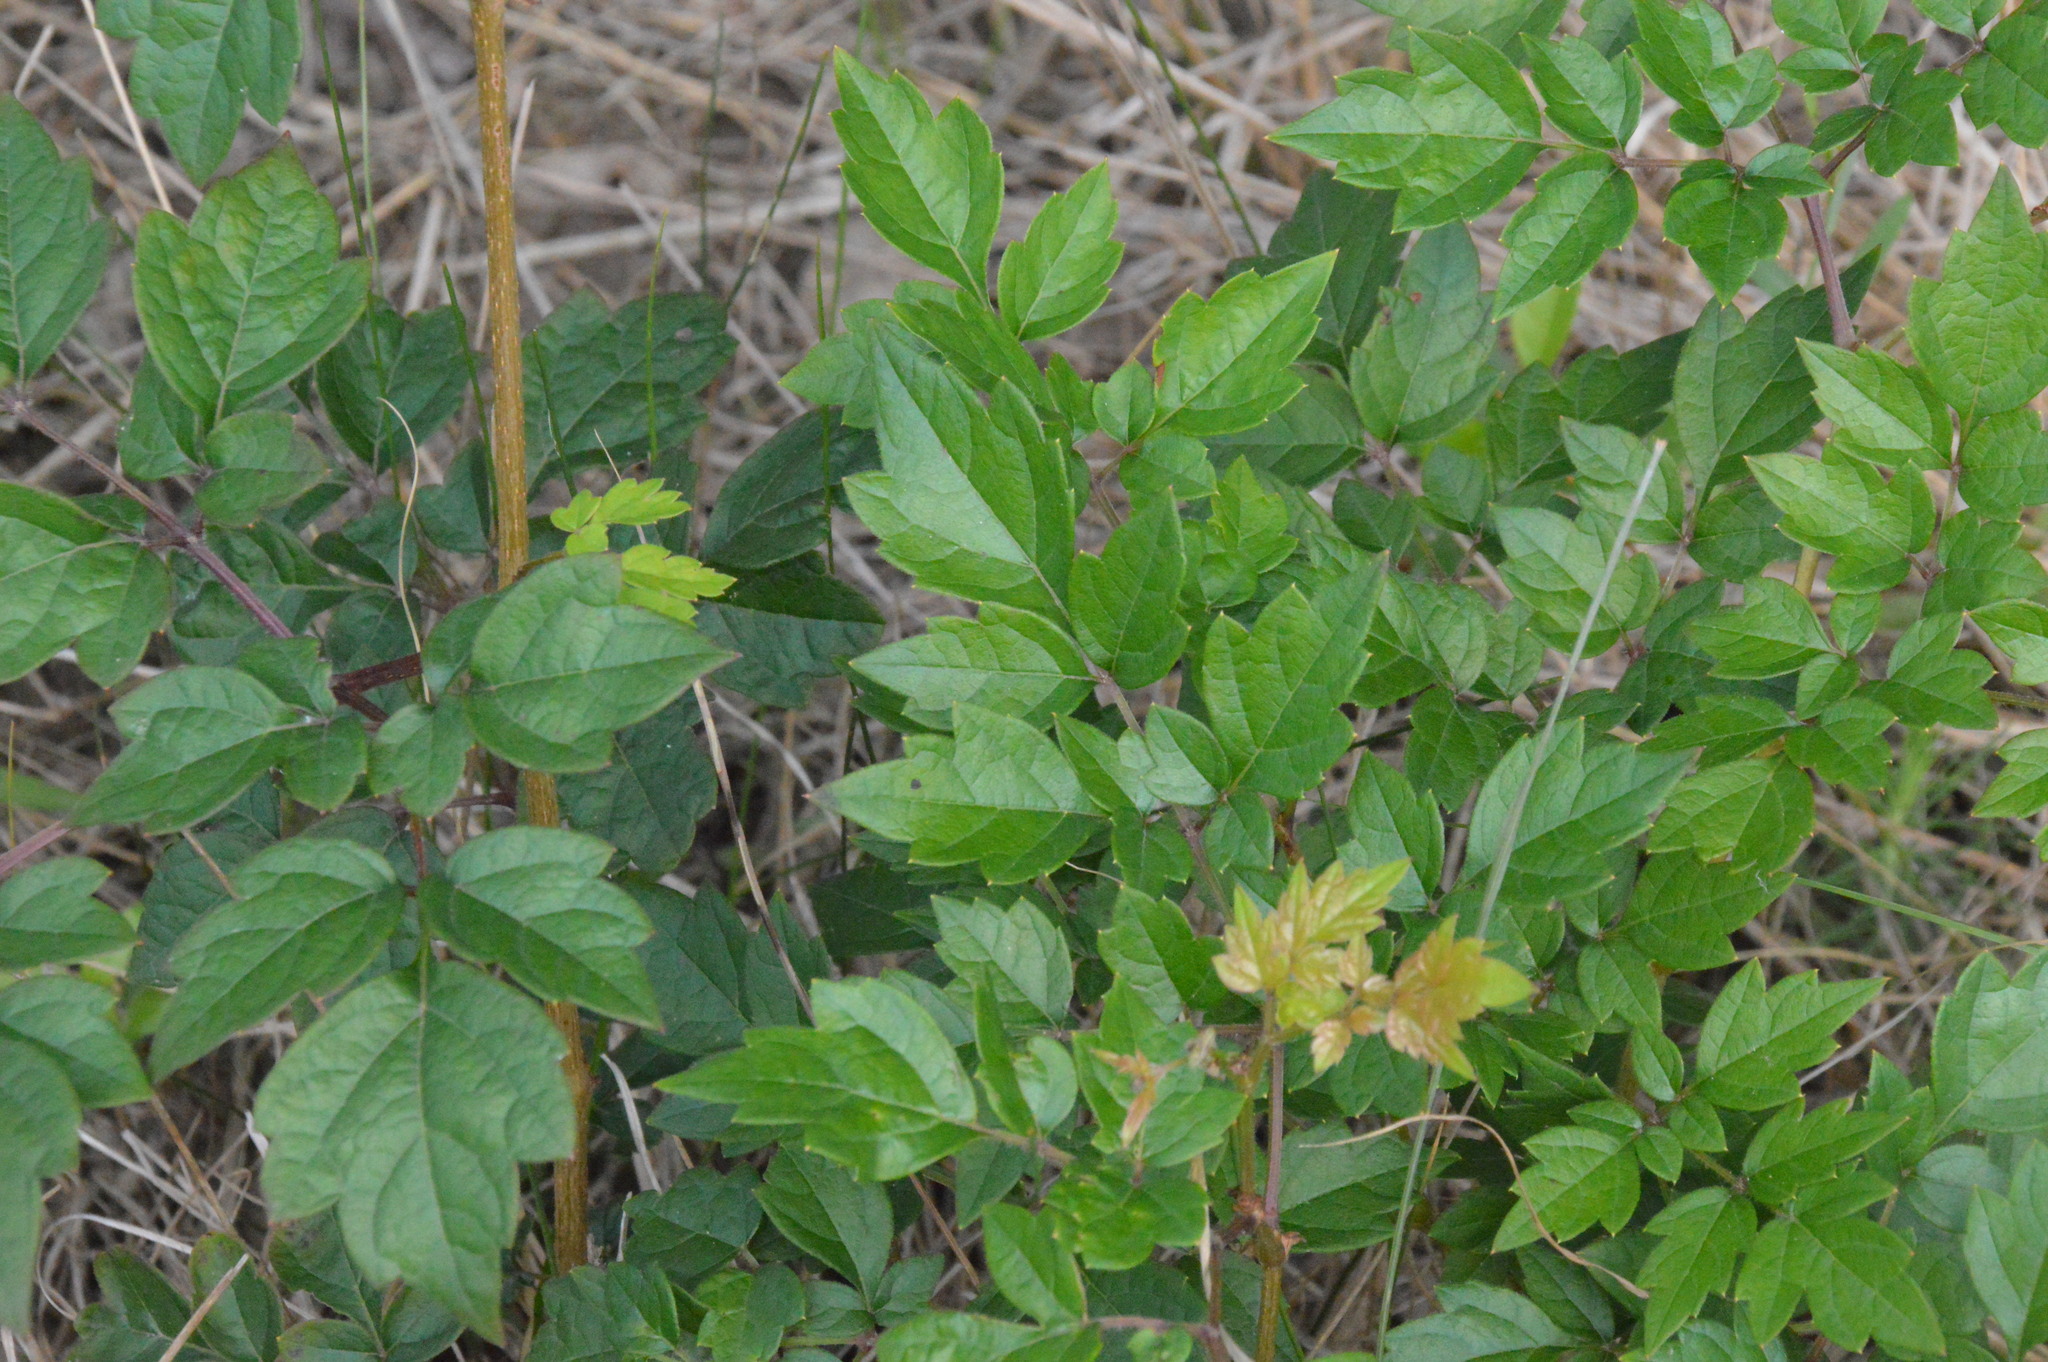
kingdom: Plantae
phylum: Tracheophyta
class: Magnoliopsida
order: Vitales
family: Vitaceae
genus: Nekemias
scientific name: Nekemias arborea
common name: Peppervine
